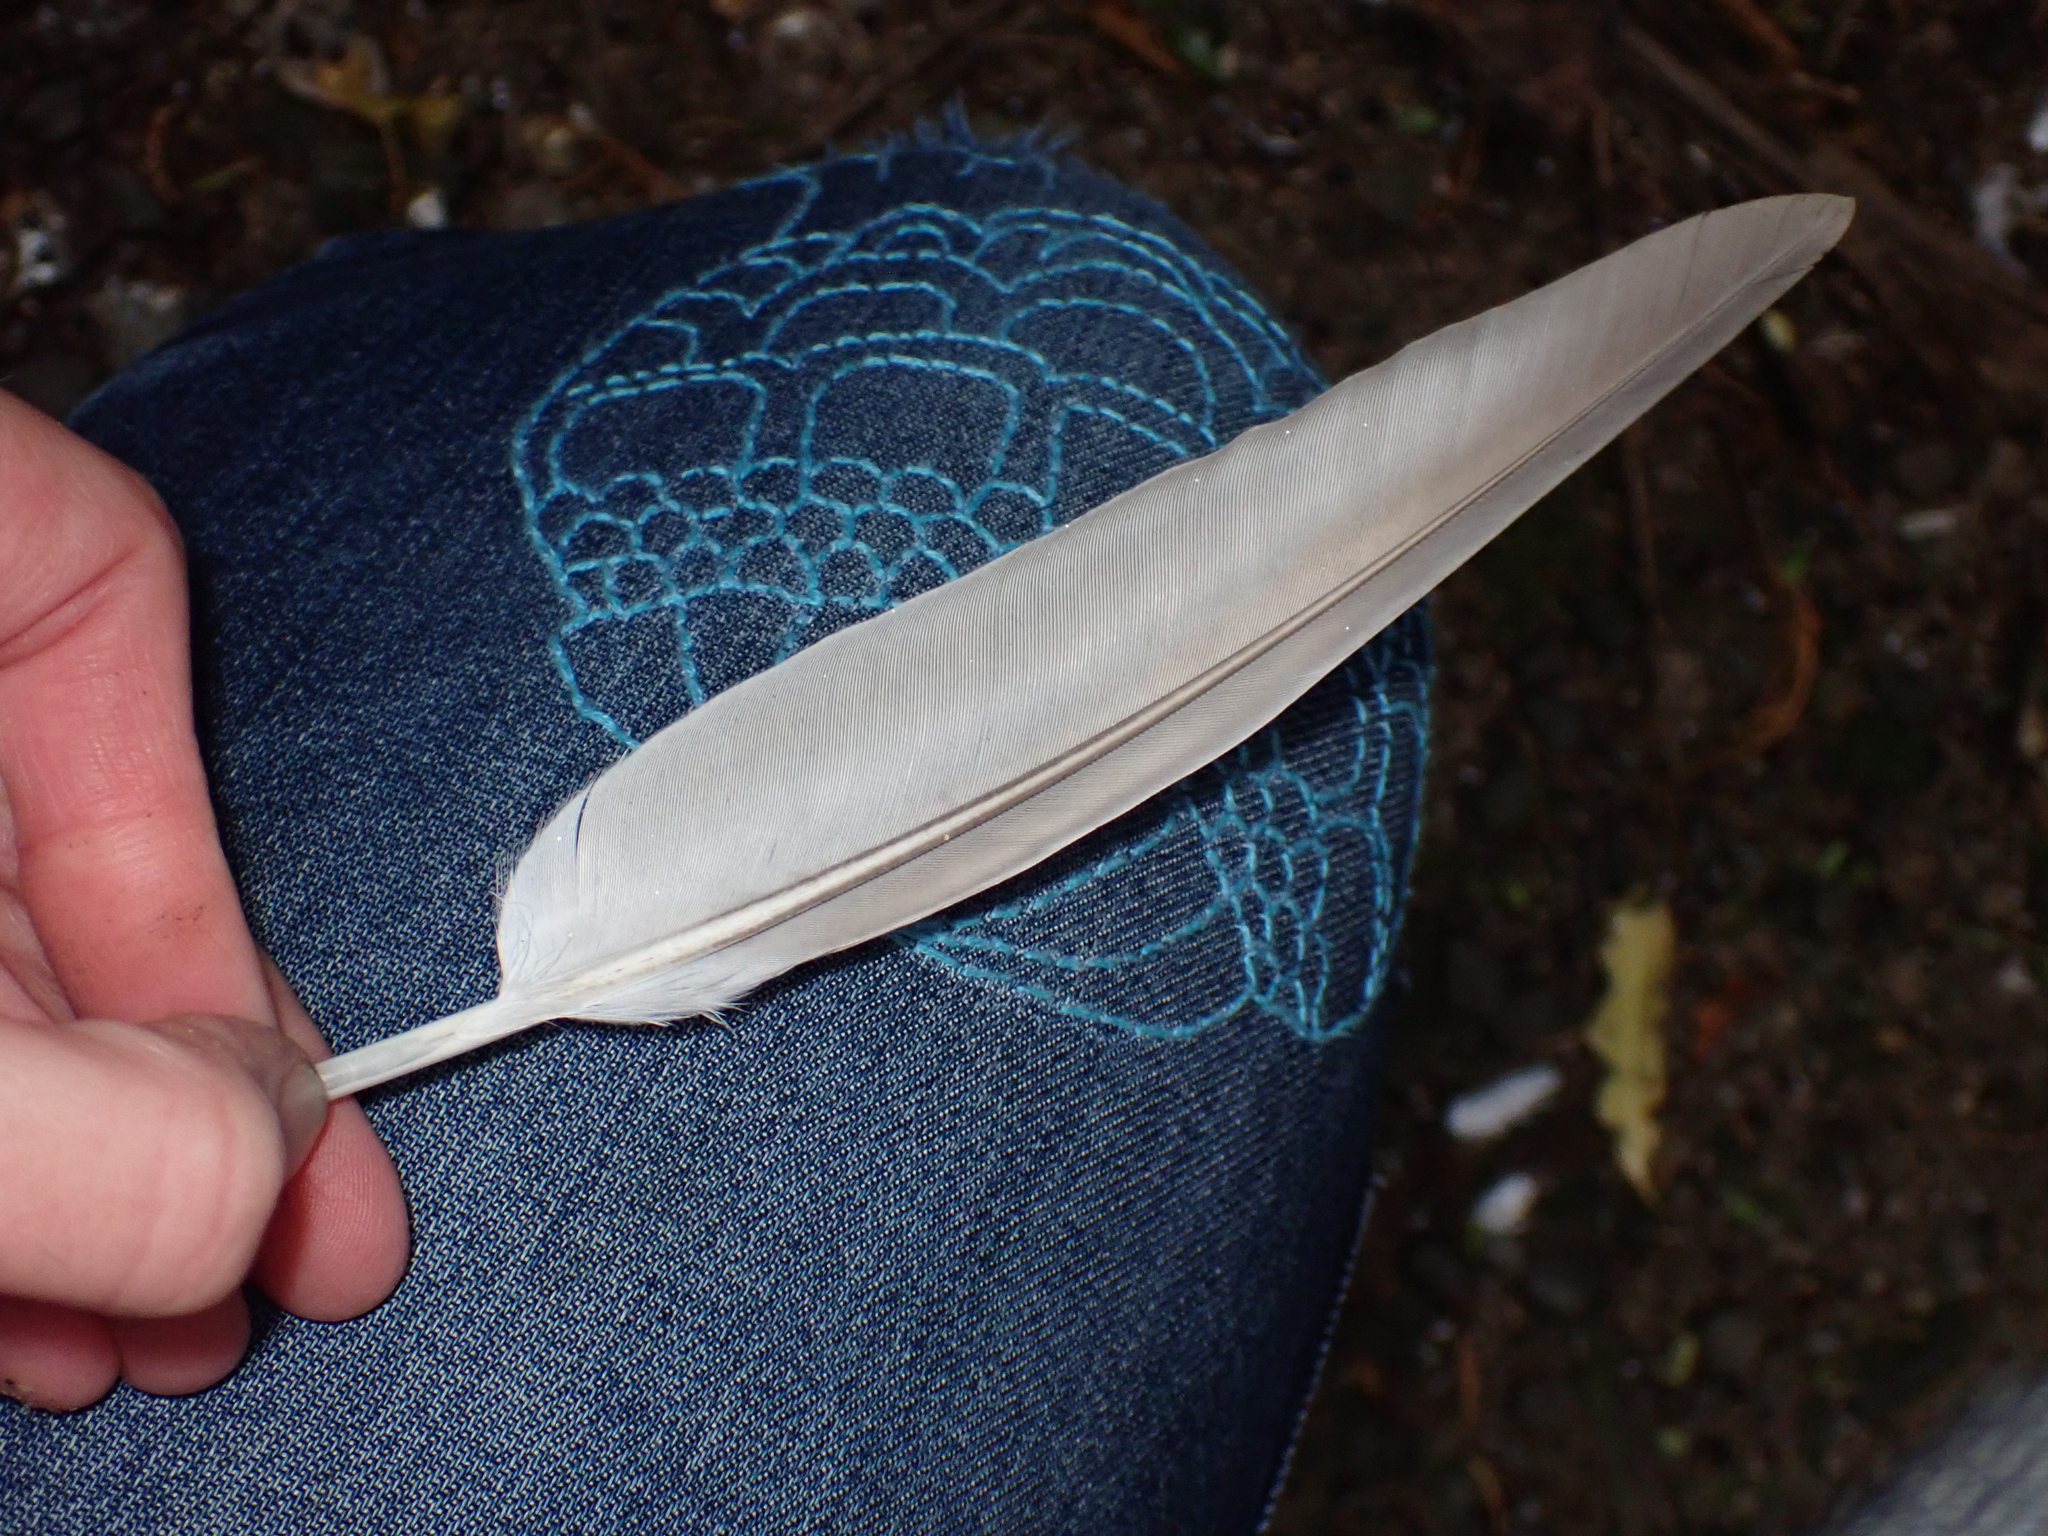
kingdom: Animalia
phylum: Chordata
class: Aves
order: Columbiformes
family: Columbidae
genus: Columba
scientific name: Columba livia
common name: Rock pigeon
